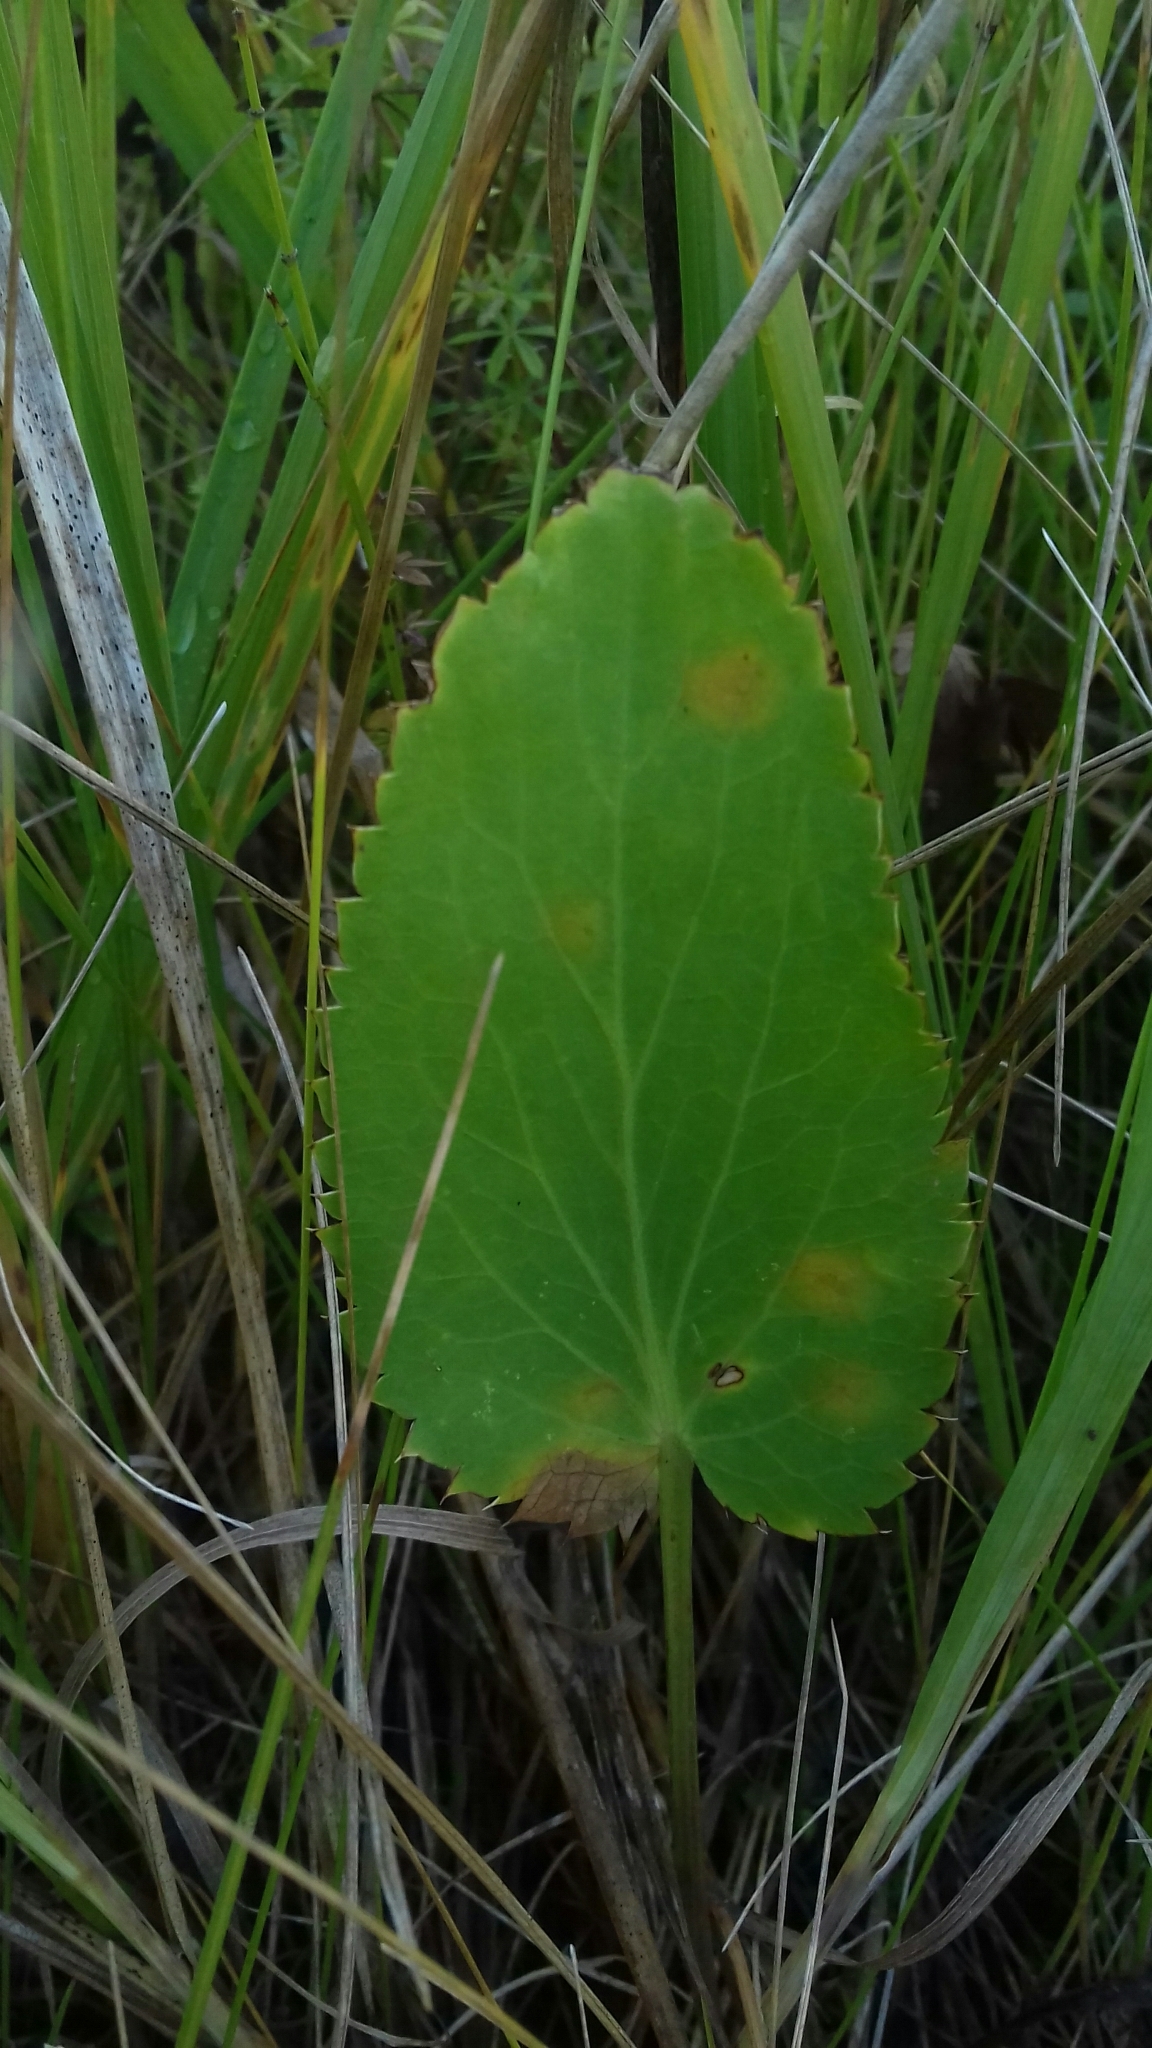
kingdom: Plantae
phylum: Tracheophyta
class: Magnoliopsida
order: Apiales
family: Apiaceae
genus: Eryngium
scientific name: Eryngium planum
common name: Blue eryngo
